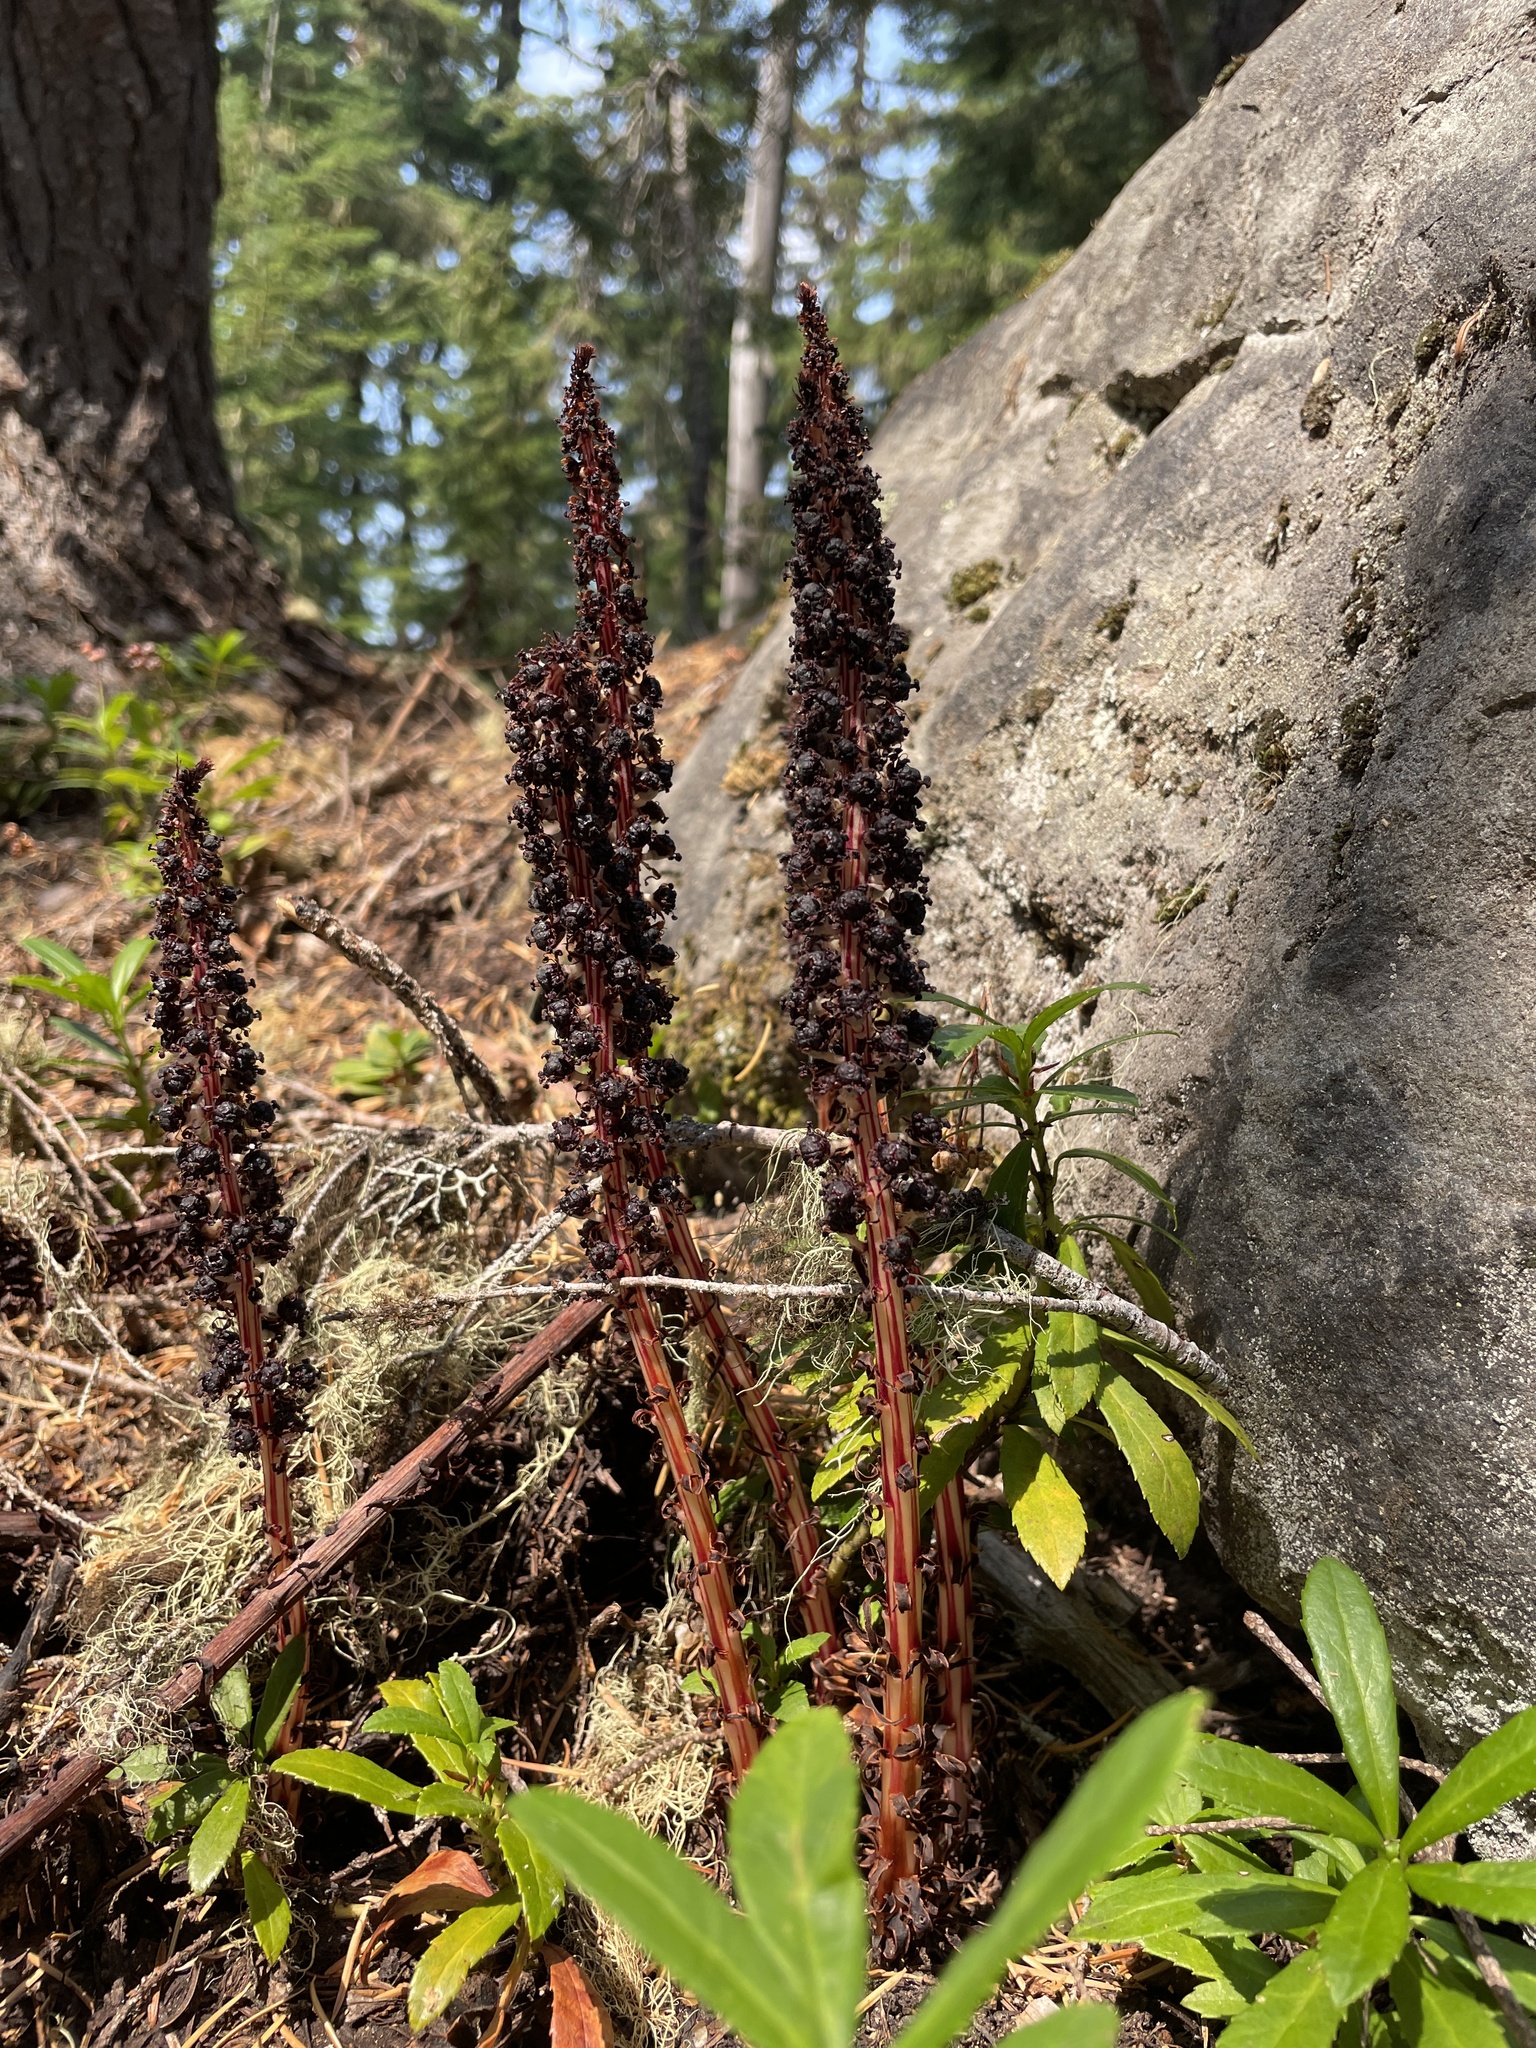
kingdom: Plantae
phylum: Tracheophyta
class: Magnoliopsida
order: Ericales
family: Ericaceae
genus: Allotropa
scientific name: Allotropa virgata
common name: Candy-striped allotropa
